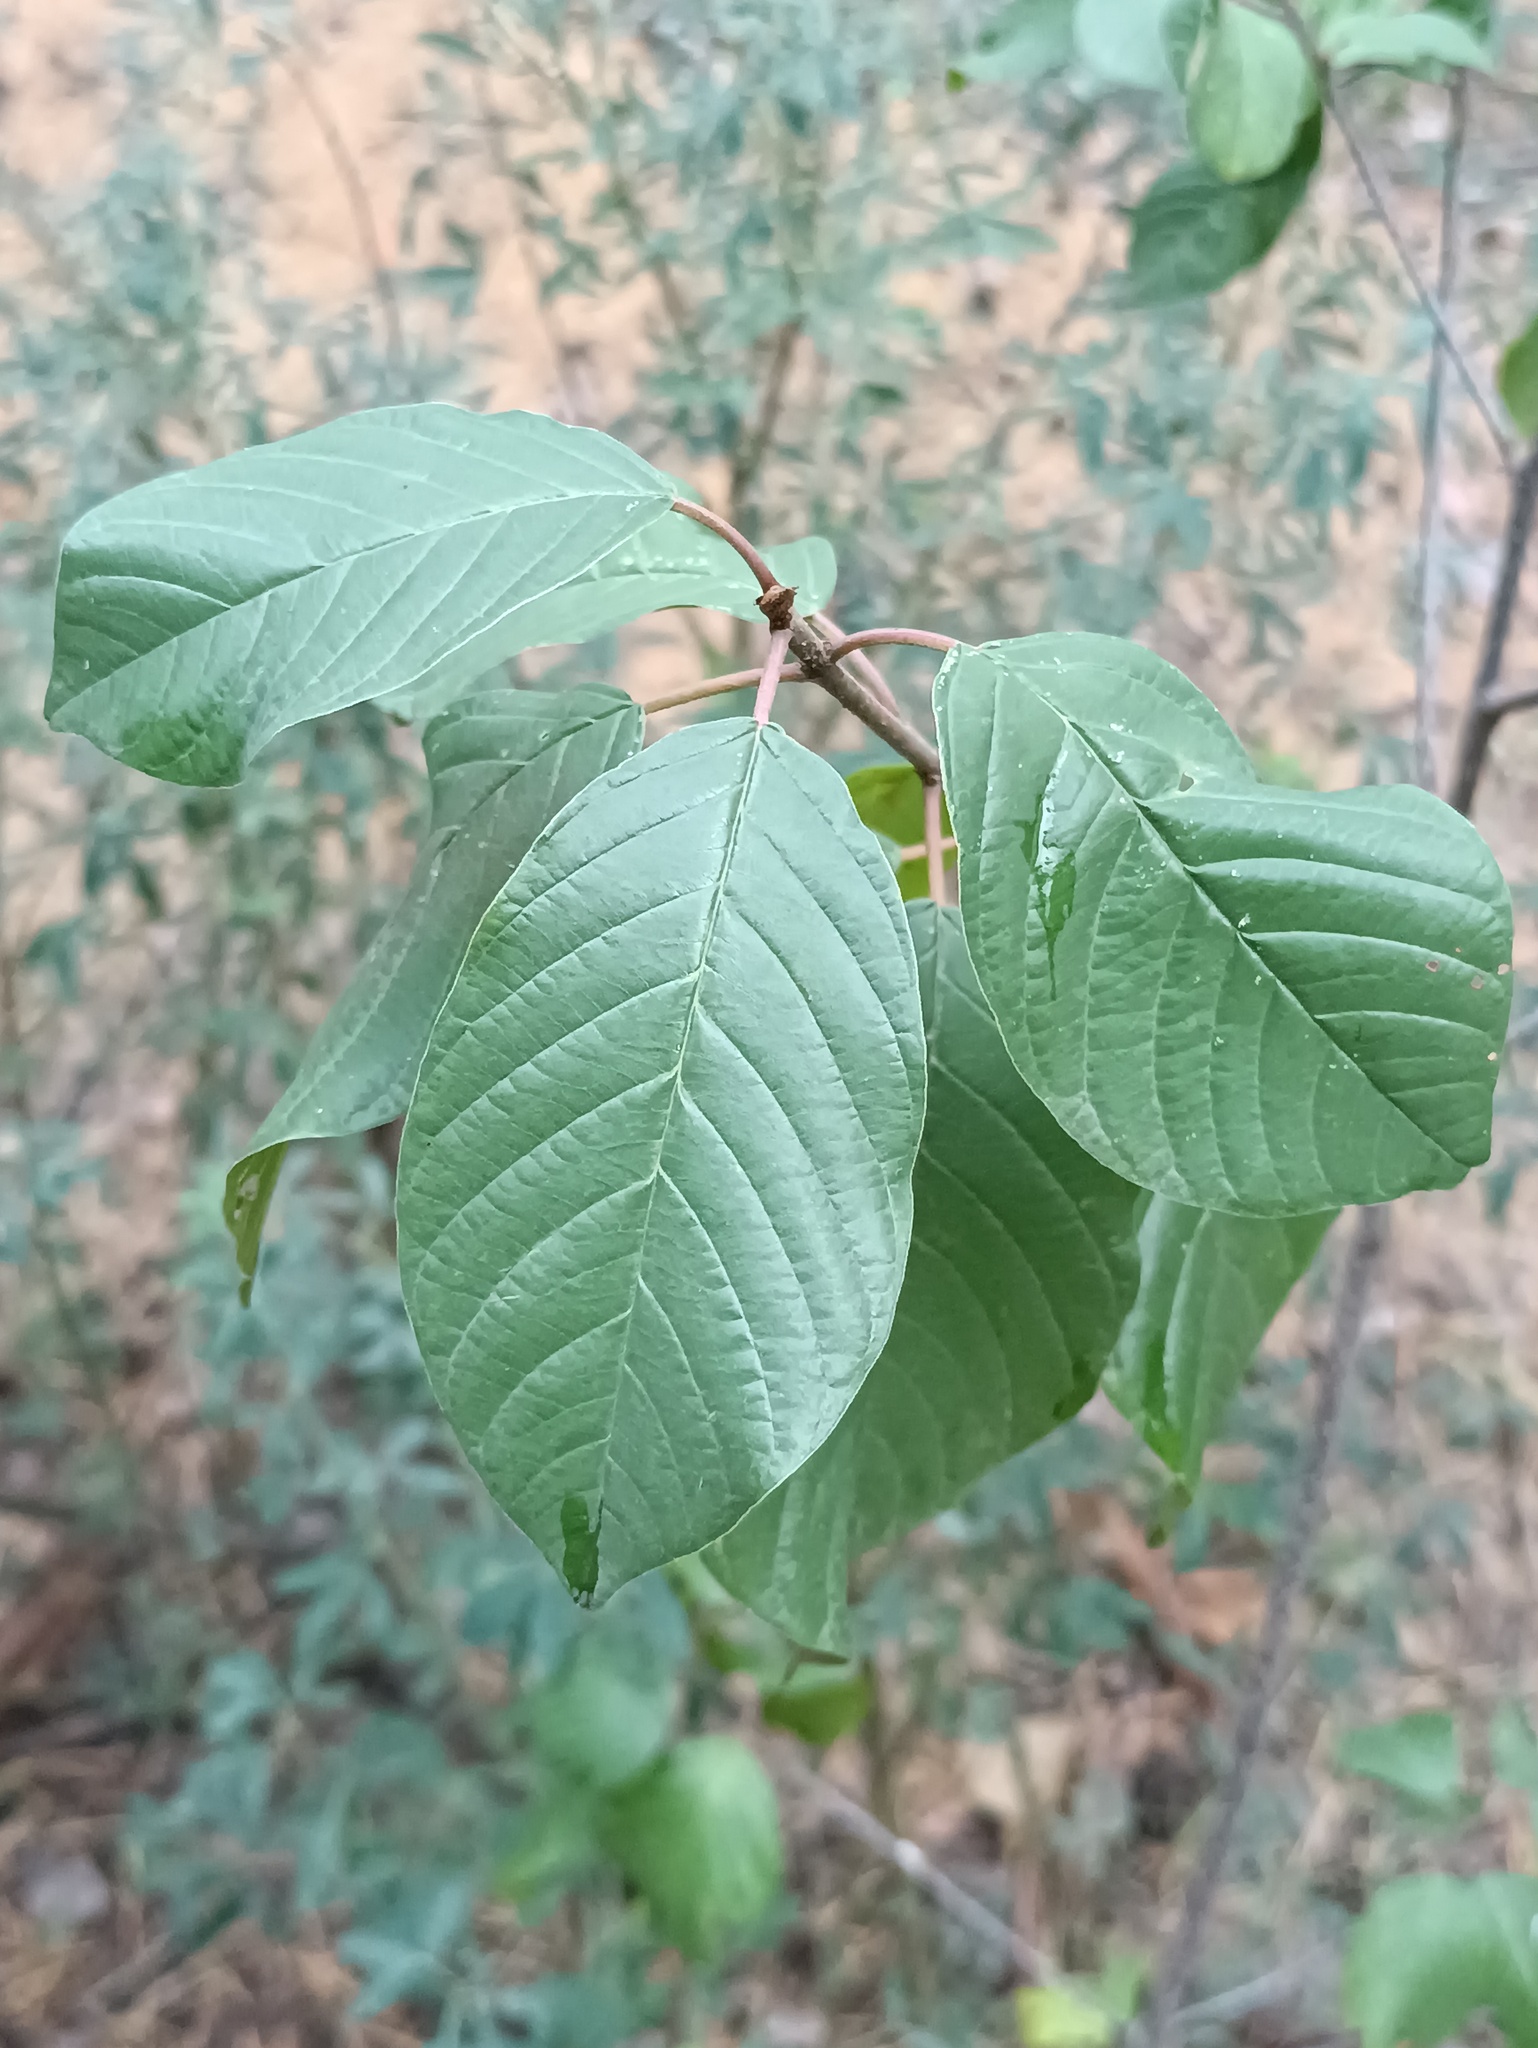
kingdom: Plantae
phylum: Tracheophyta
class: Magnoliopsida
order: Rosales
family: Rhamnaceae
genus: Frangula
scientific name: Frangula alnus
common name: Alder buckthorn
